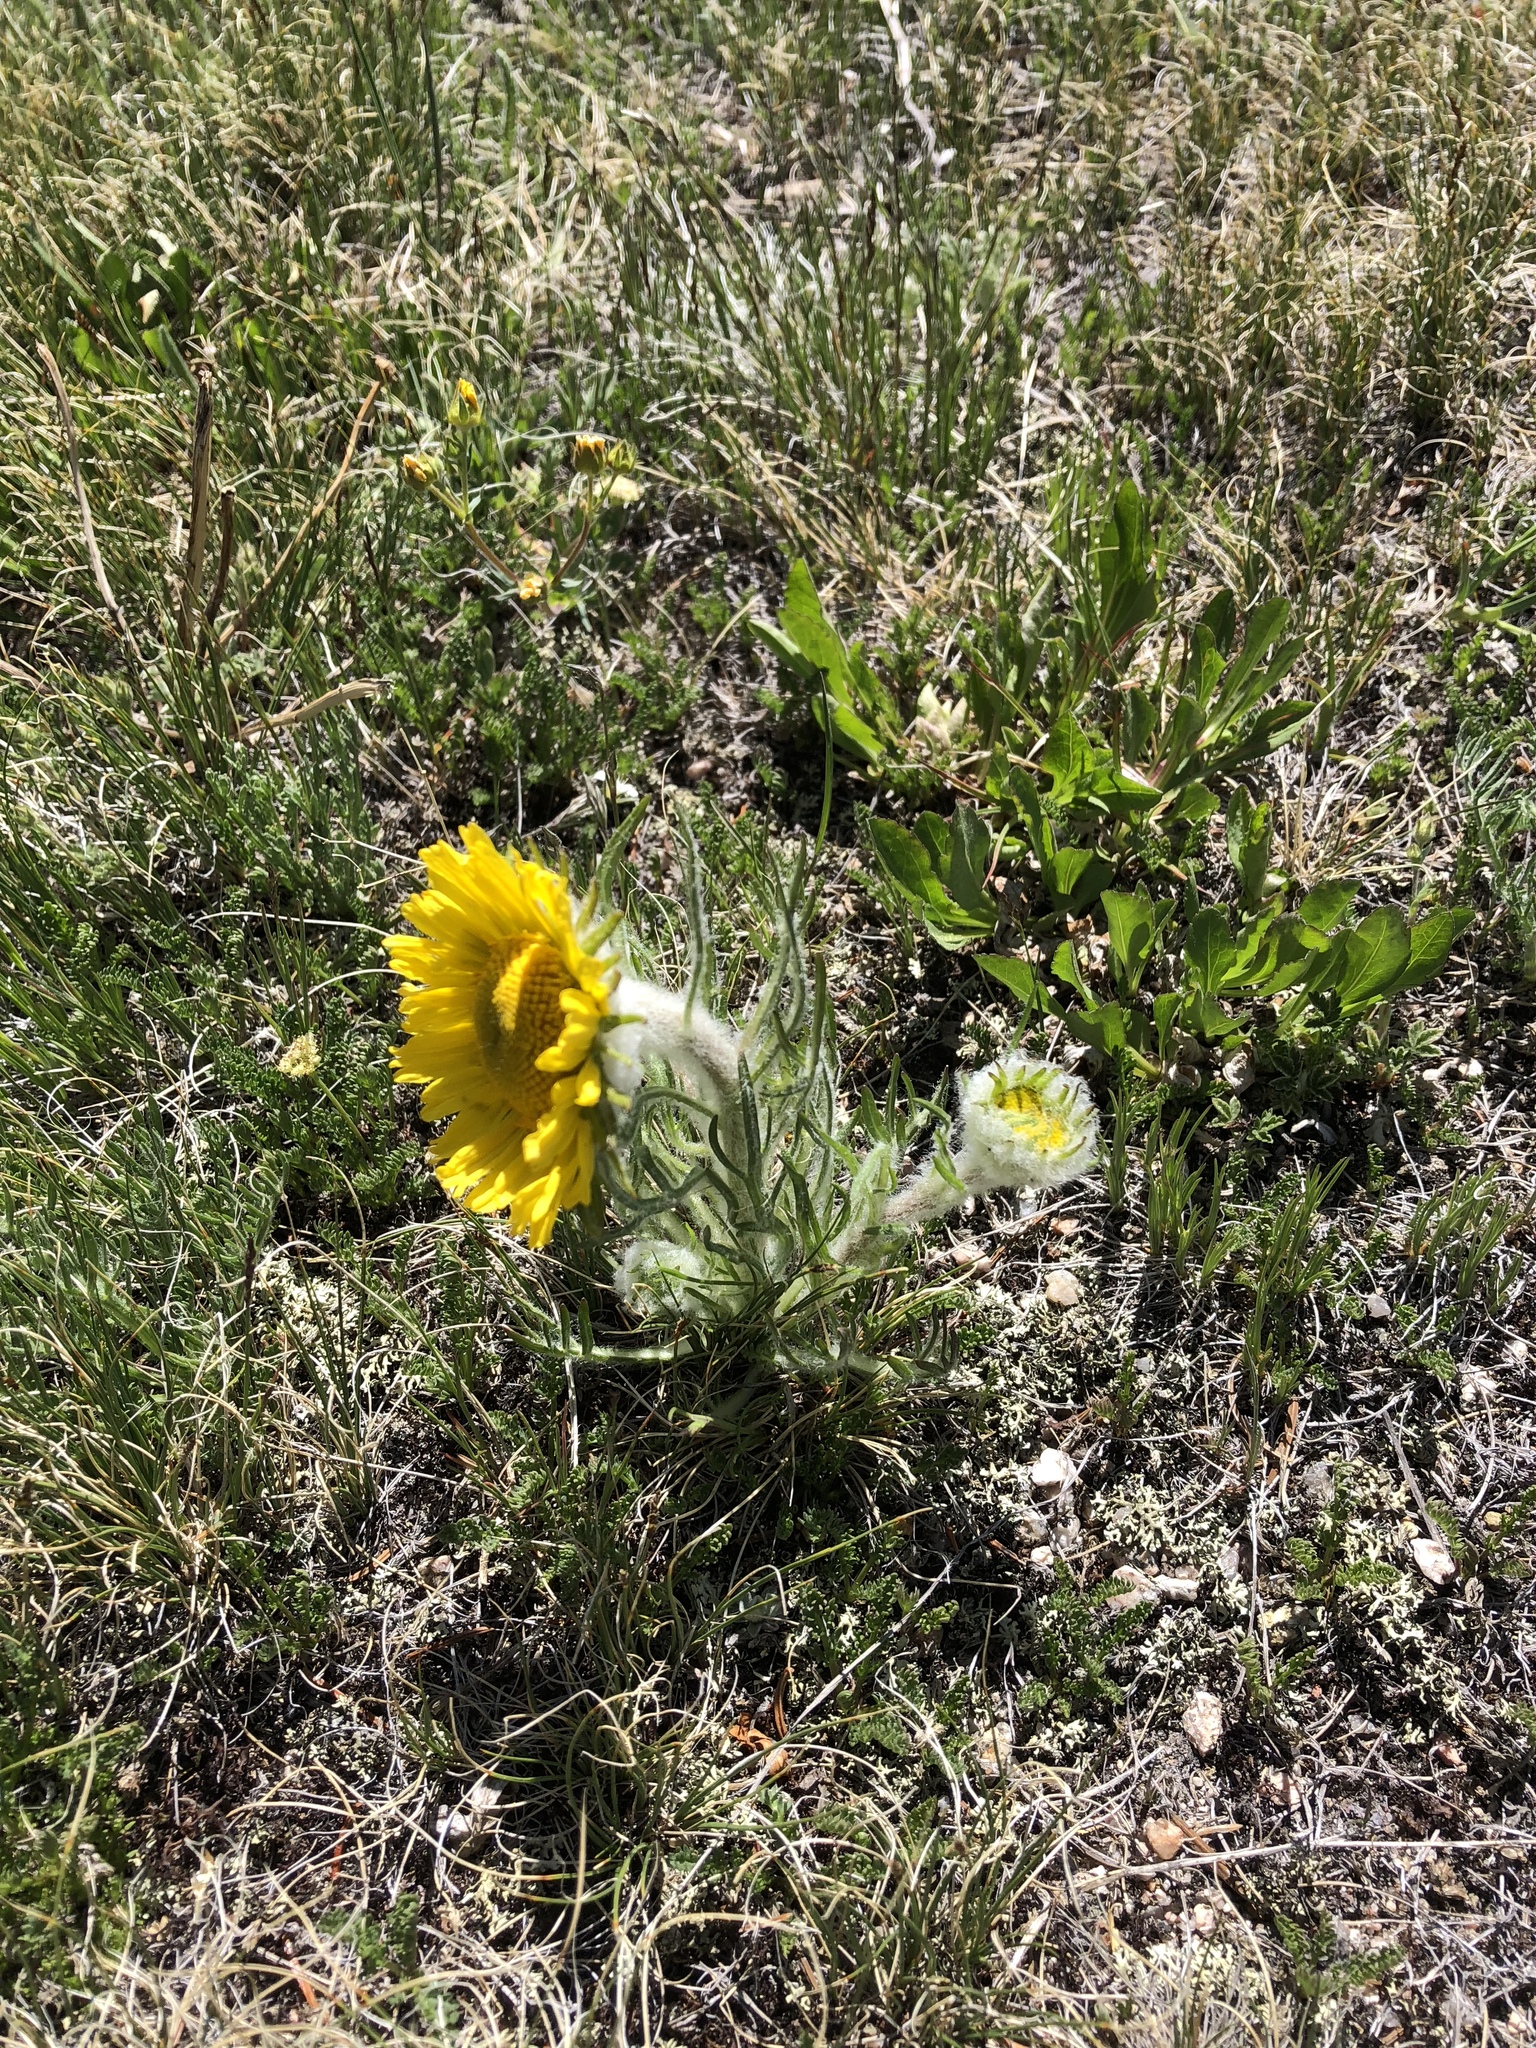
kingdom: Plantae
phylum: Tracheophyta
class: Magnoliopsida
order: Asterales
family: Asteraceae
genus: Hymenoxys
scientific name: Hymenoxys grandiflora
